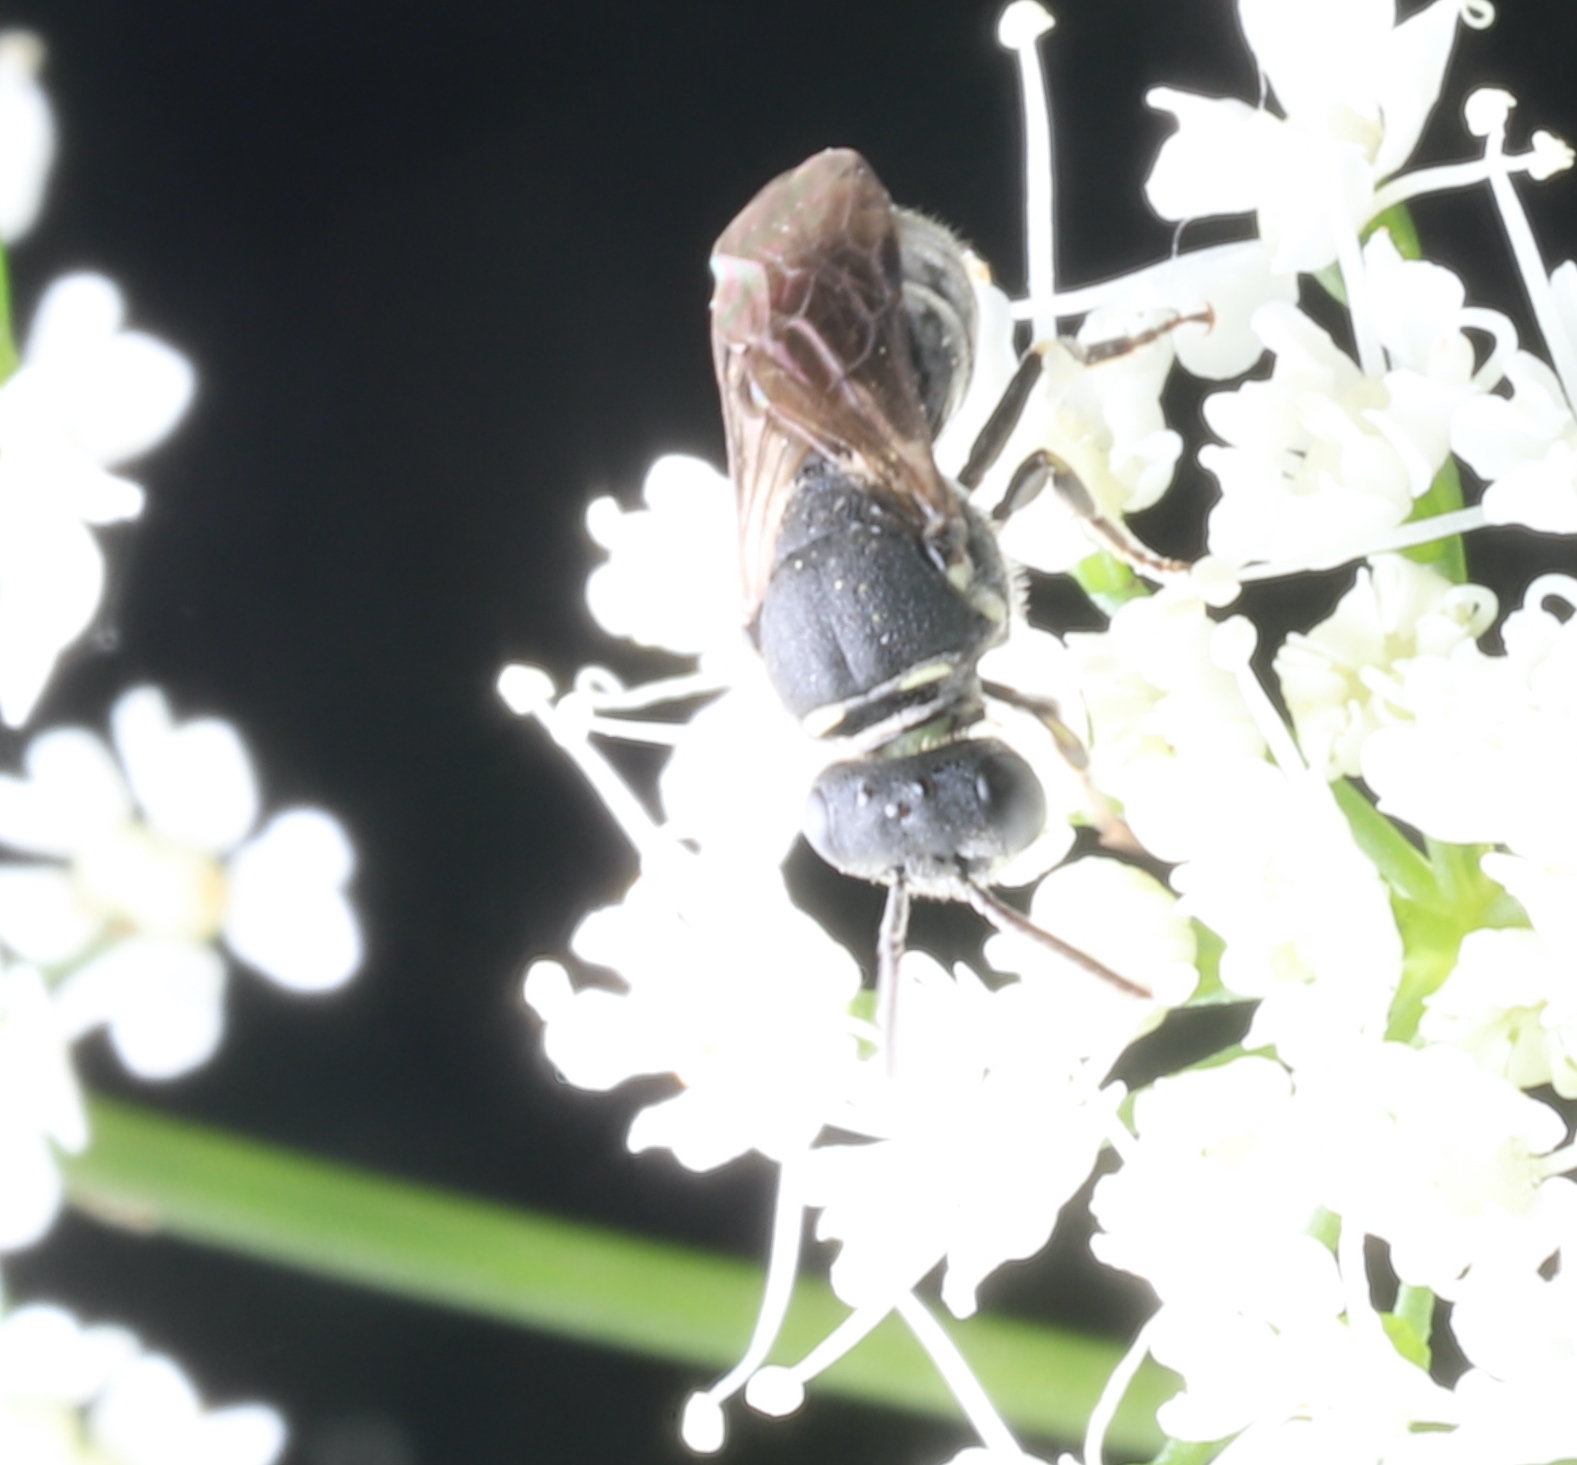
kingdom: Animalia
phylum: Arthropoda
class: Insecta
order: Hymenoptera
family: Colletidae
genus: Hylaeus
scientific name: Hylaeus
